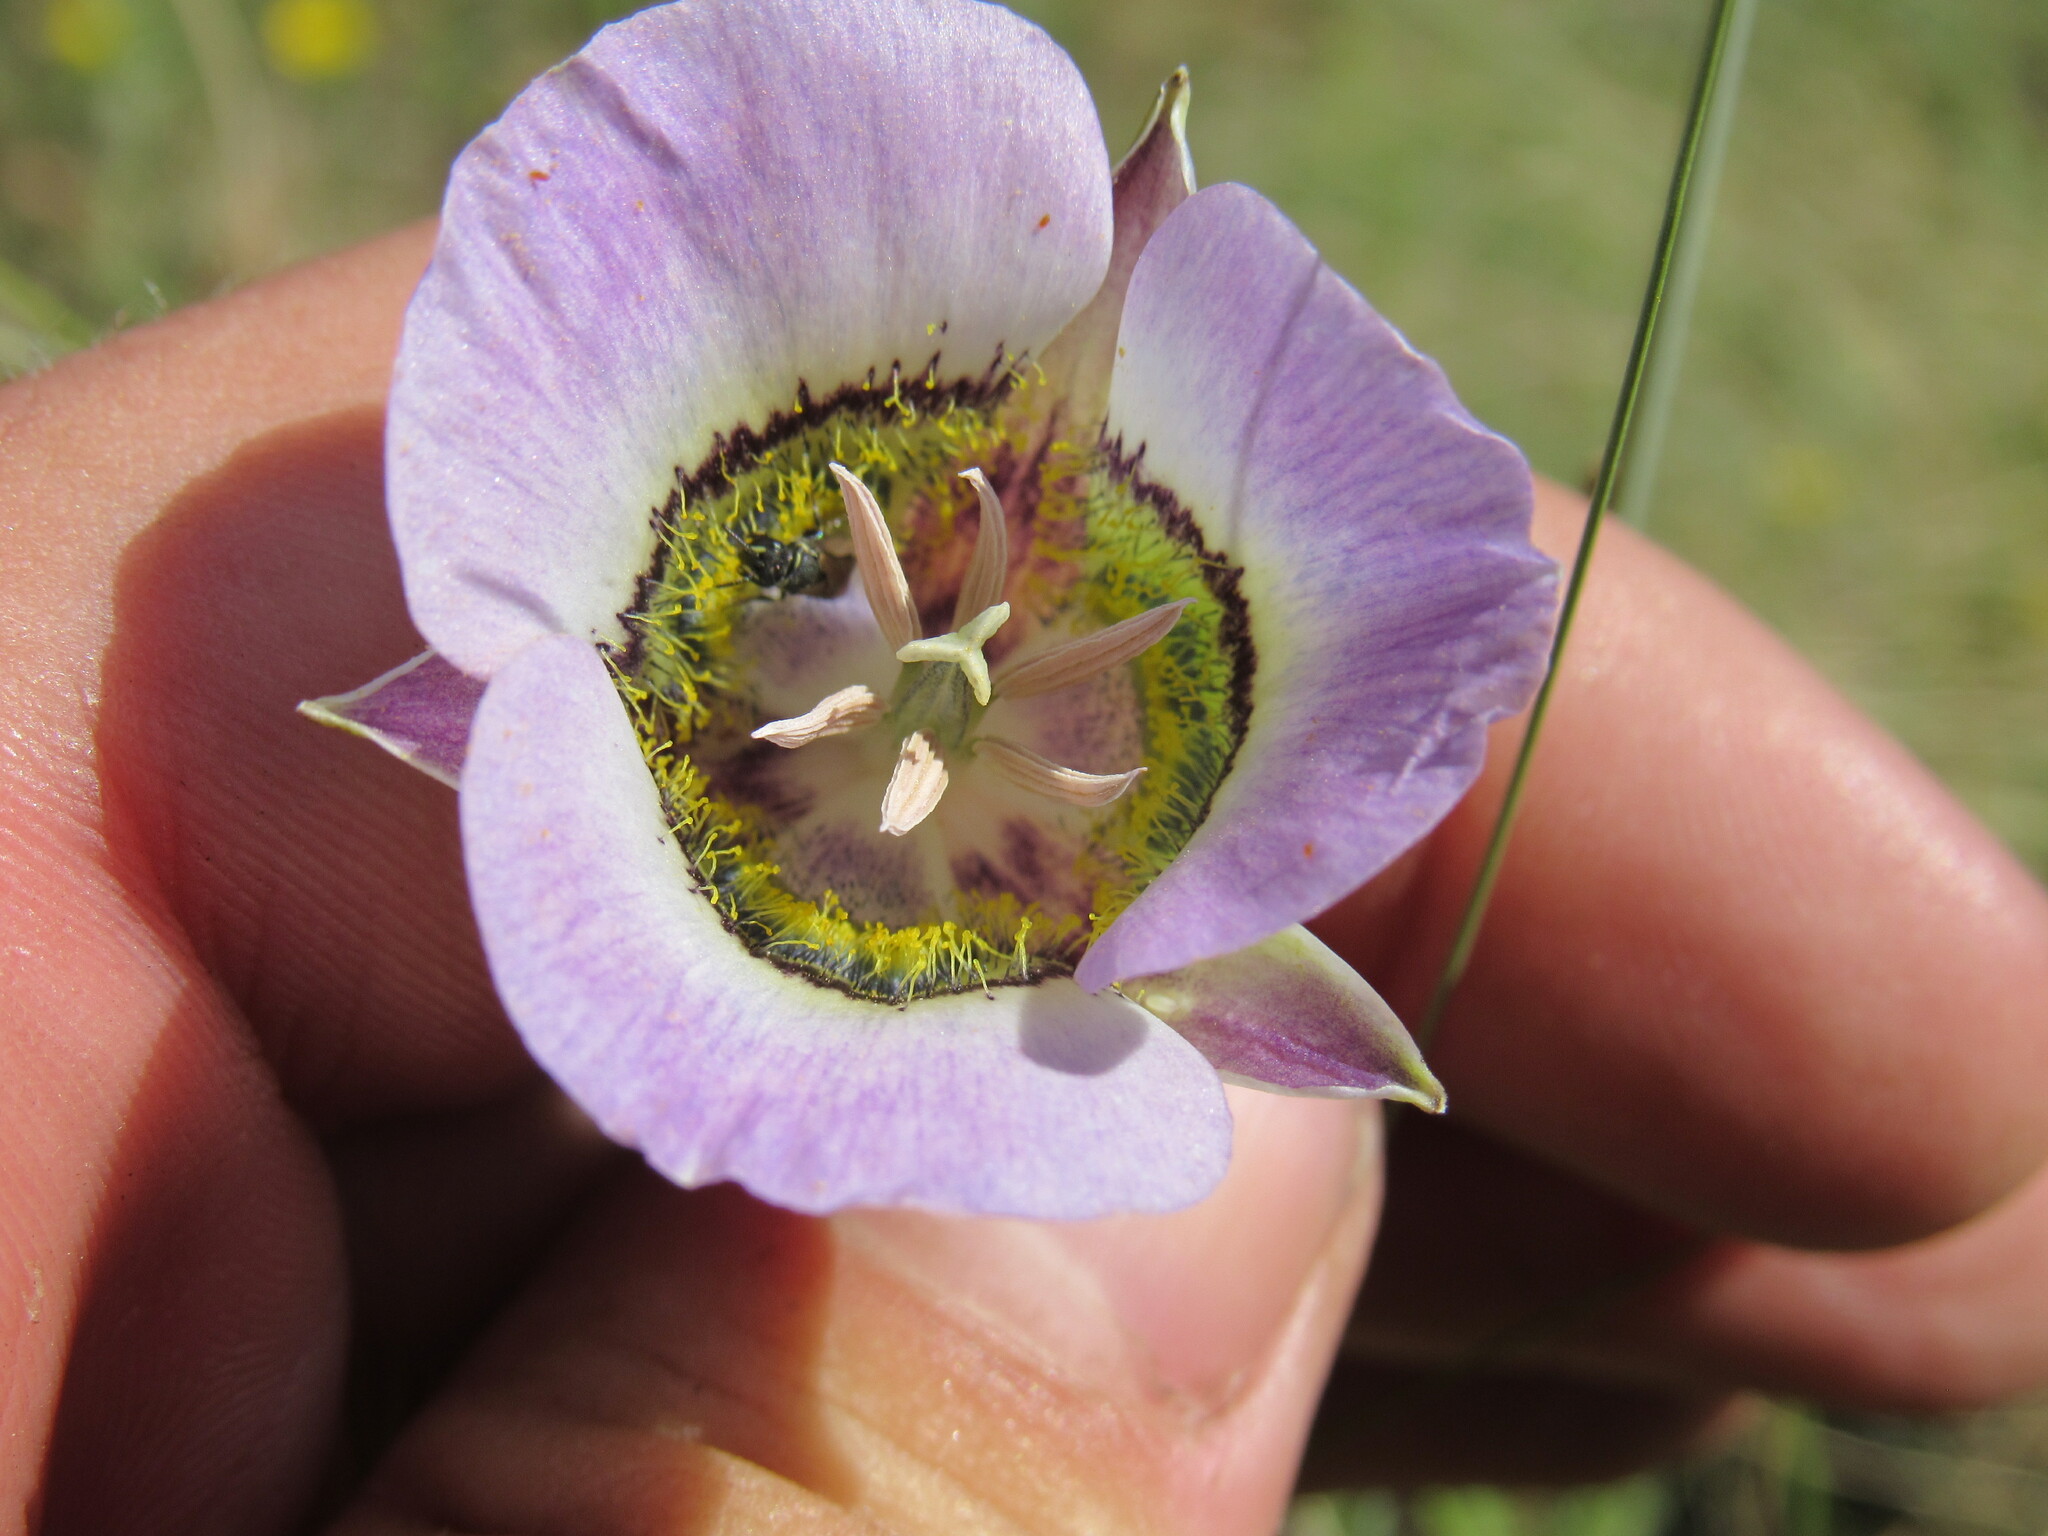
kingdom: Plantae
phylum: Tracheophyta
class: Liliopsida
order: Liliales
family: Liliaceae
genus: Calochortus
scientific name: Calochortus gunnisonii
